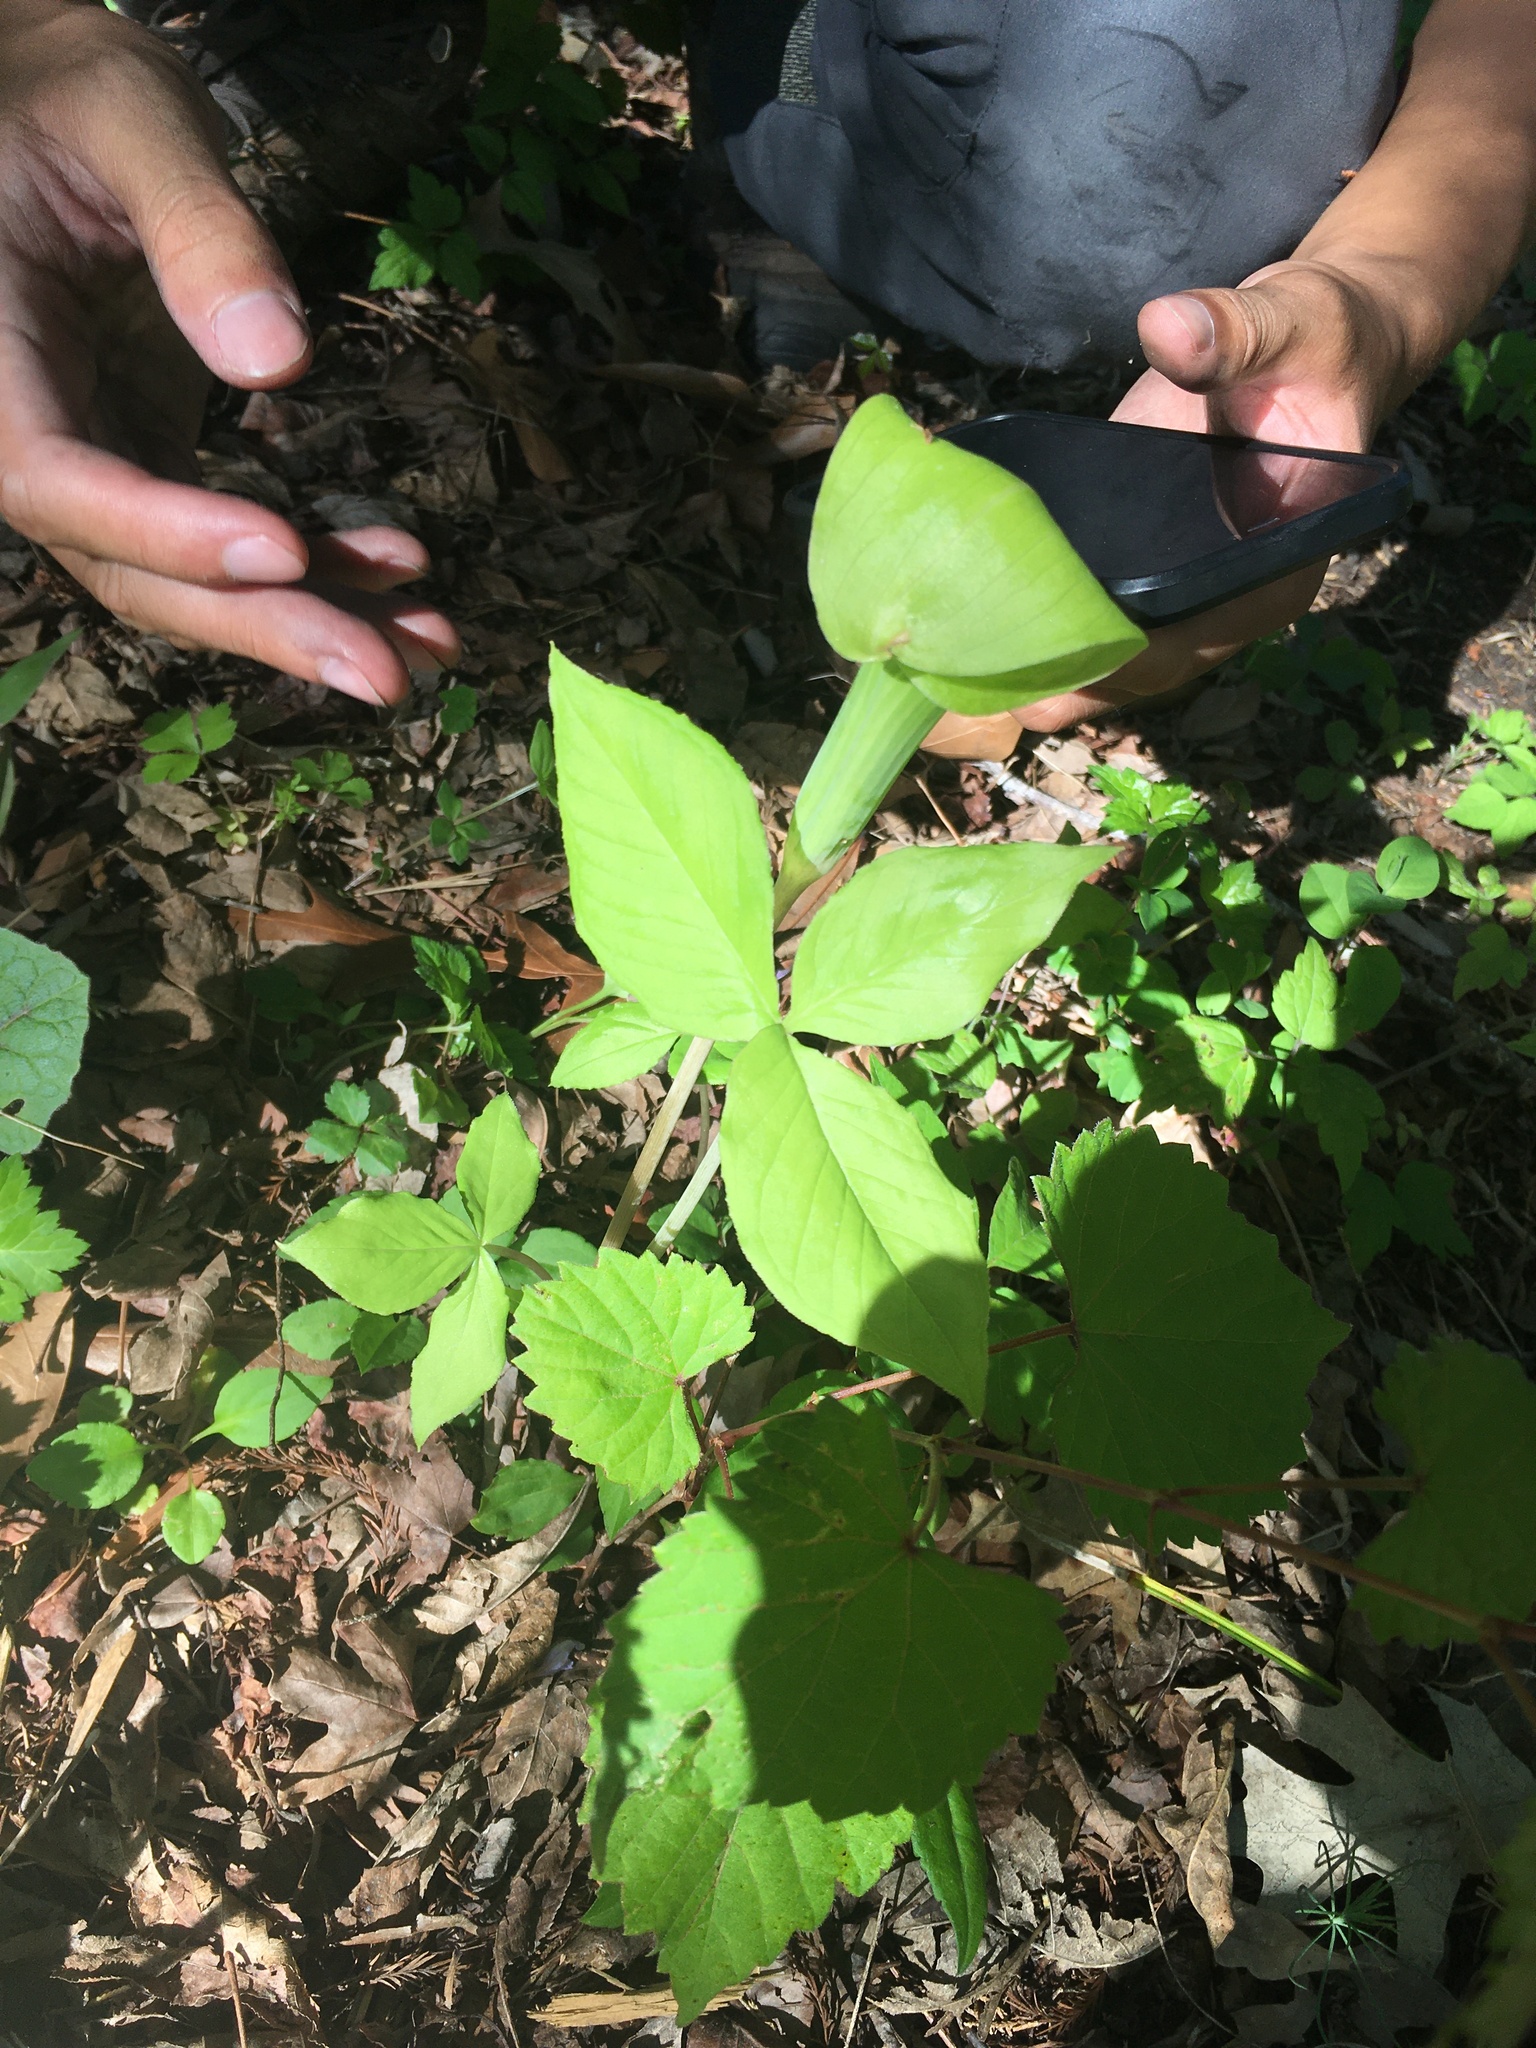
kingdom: Plantae
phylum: Tracheophyta
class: Liliopsida
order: Alismatales
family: Araceae
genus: Arisaema
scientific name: Arisaema triphyllum
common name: Jack-in-the-pulpit
